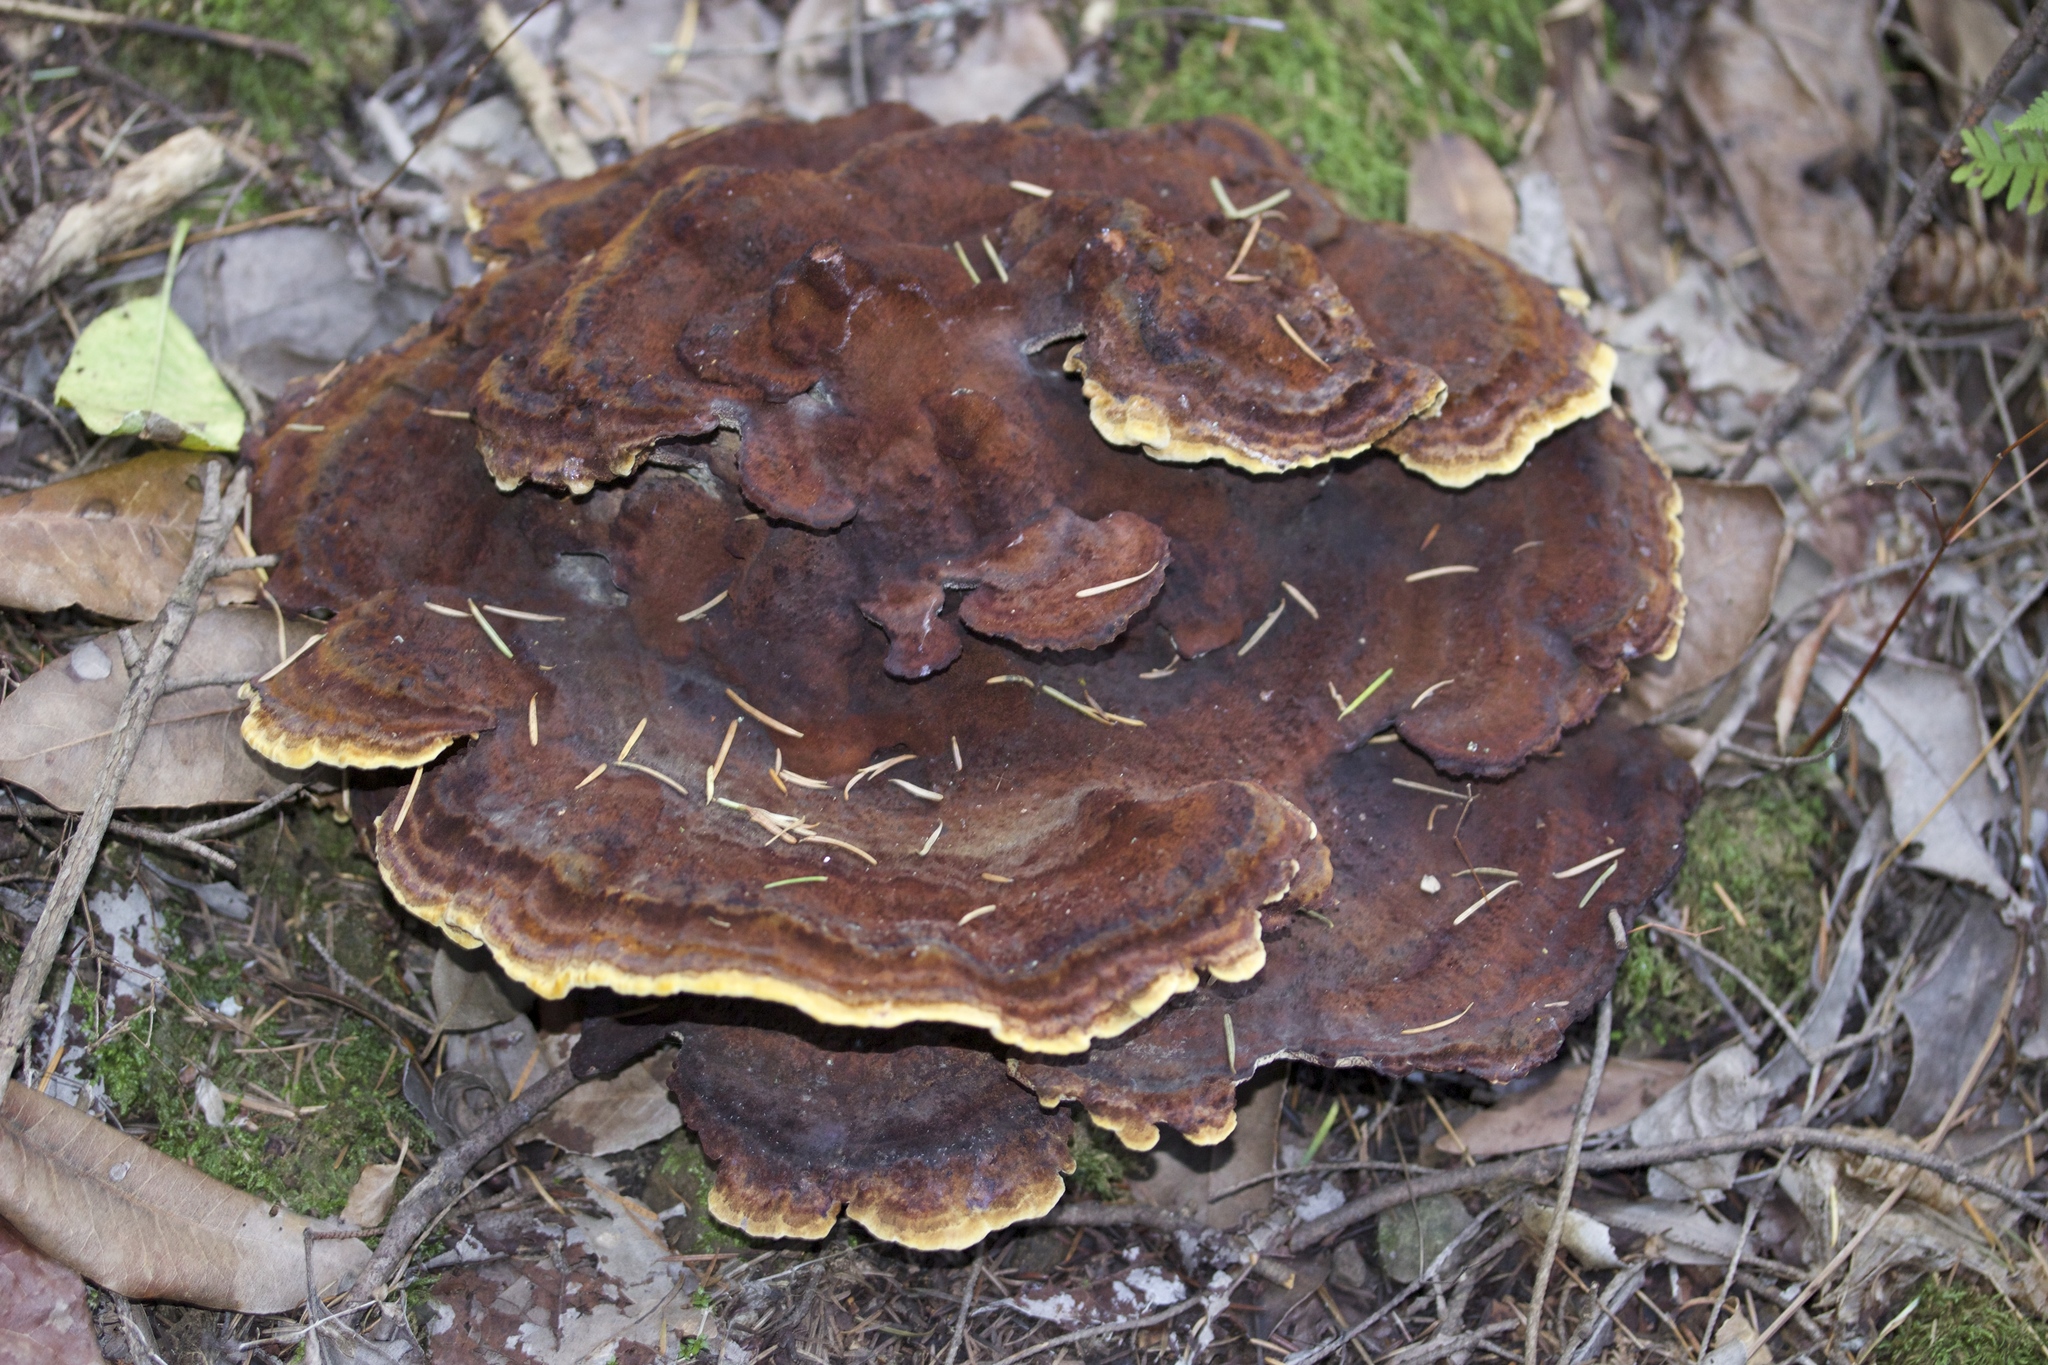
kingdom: Fungi
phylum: Basidiomycota
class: Agaricomycetes
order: Polyporales
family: Laetiporaceae
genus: Phaeolus
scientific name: Phaeolus schweinitzii
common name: Dyer's mazegill
